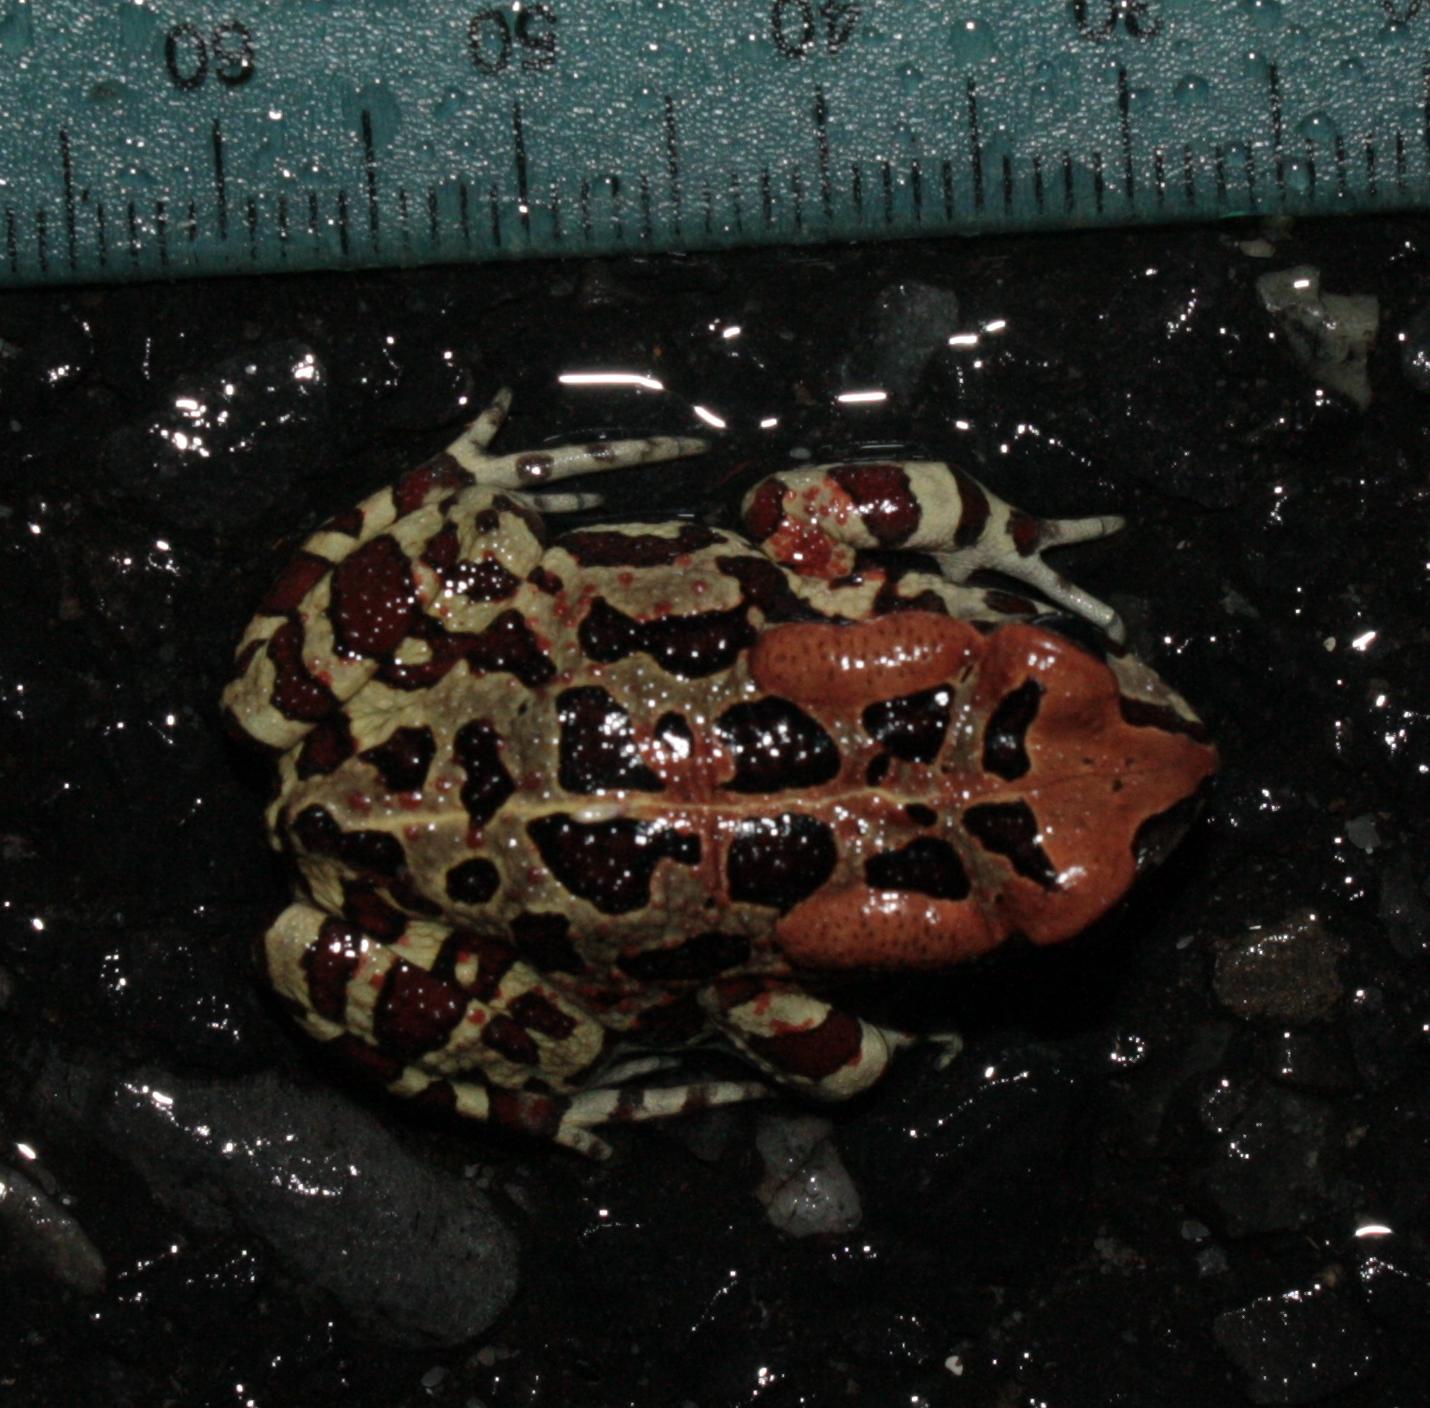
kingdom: Animalia
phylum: Chordata
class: Amphibia
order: Anura
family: Bufonidae
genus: Sclerophrys
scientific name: Sclerophrys pantherina
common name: Panther toad
